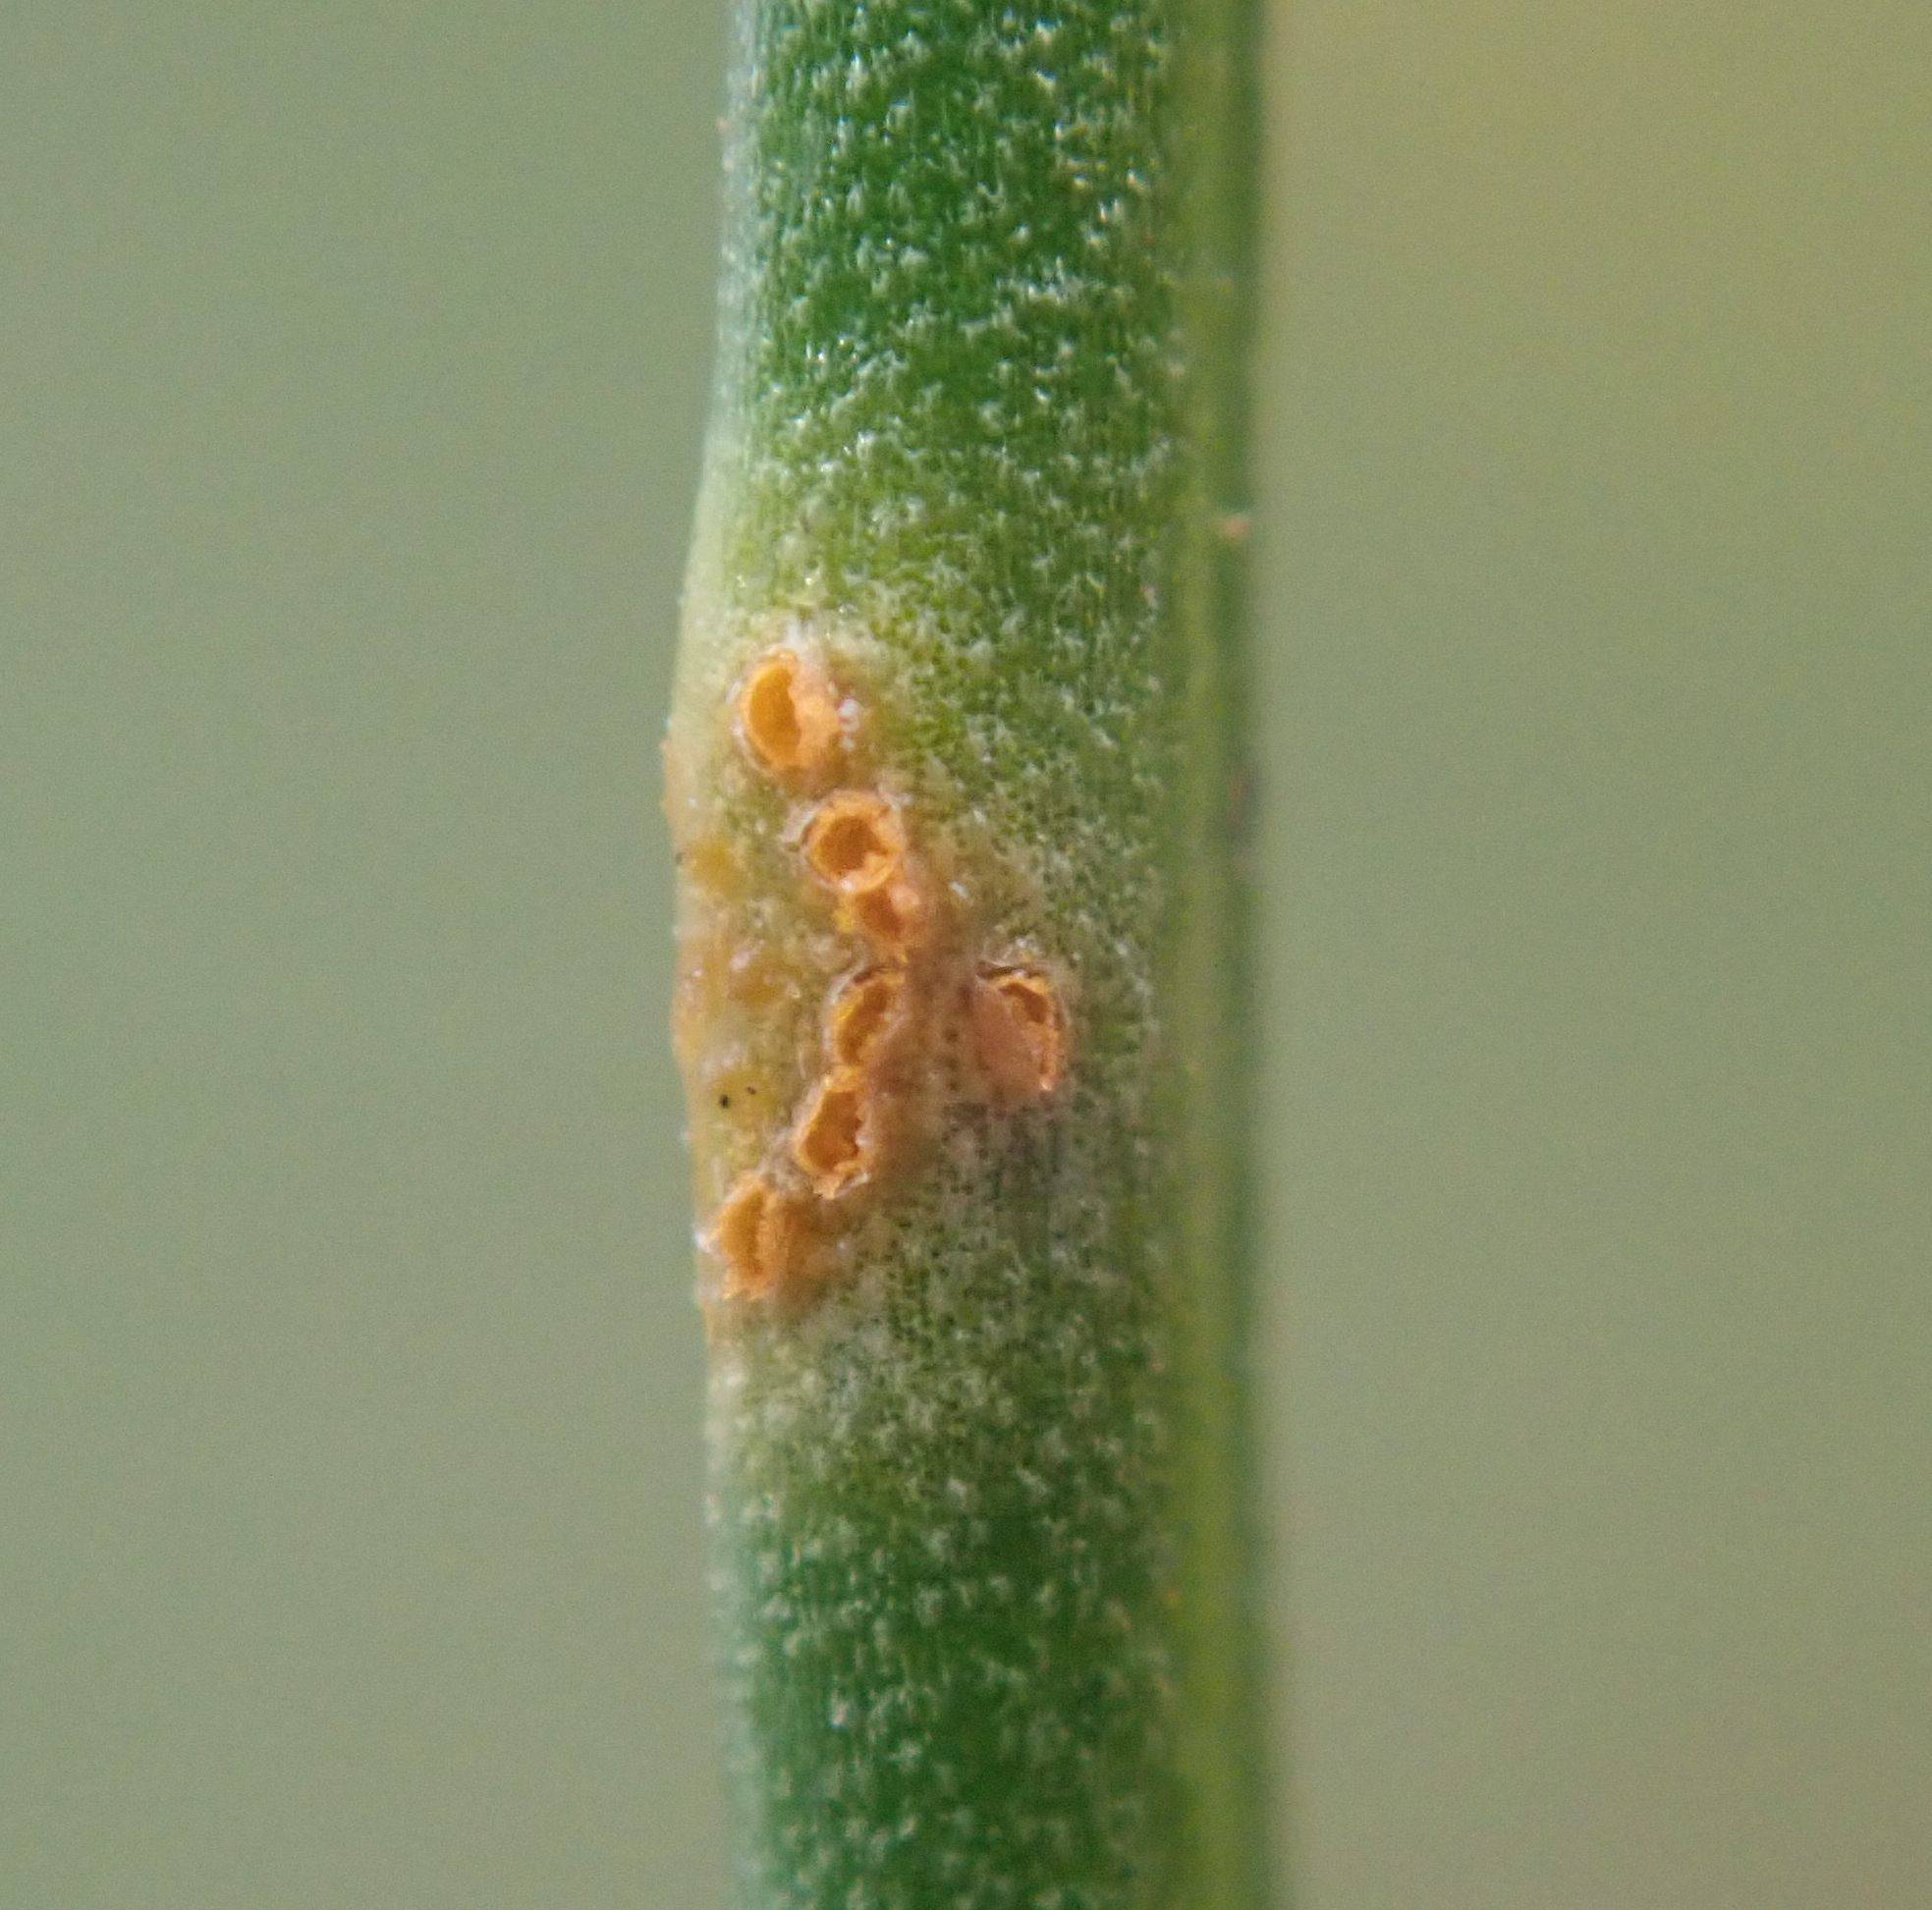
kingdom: Fungi
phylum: Basidiomycota
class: Pucciniomycetes
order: Pucciniales
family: Pucciniaceae
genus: Uromyces
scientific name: Uromyces armeriae
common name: Thrift rust
